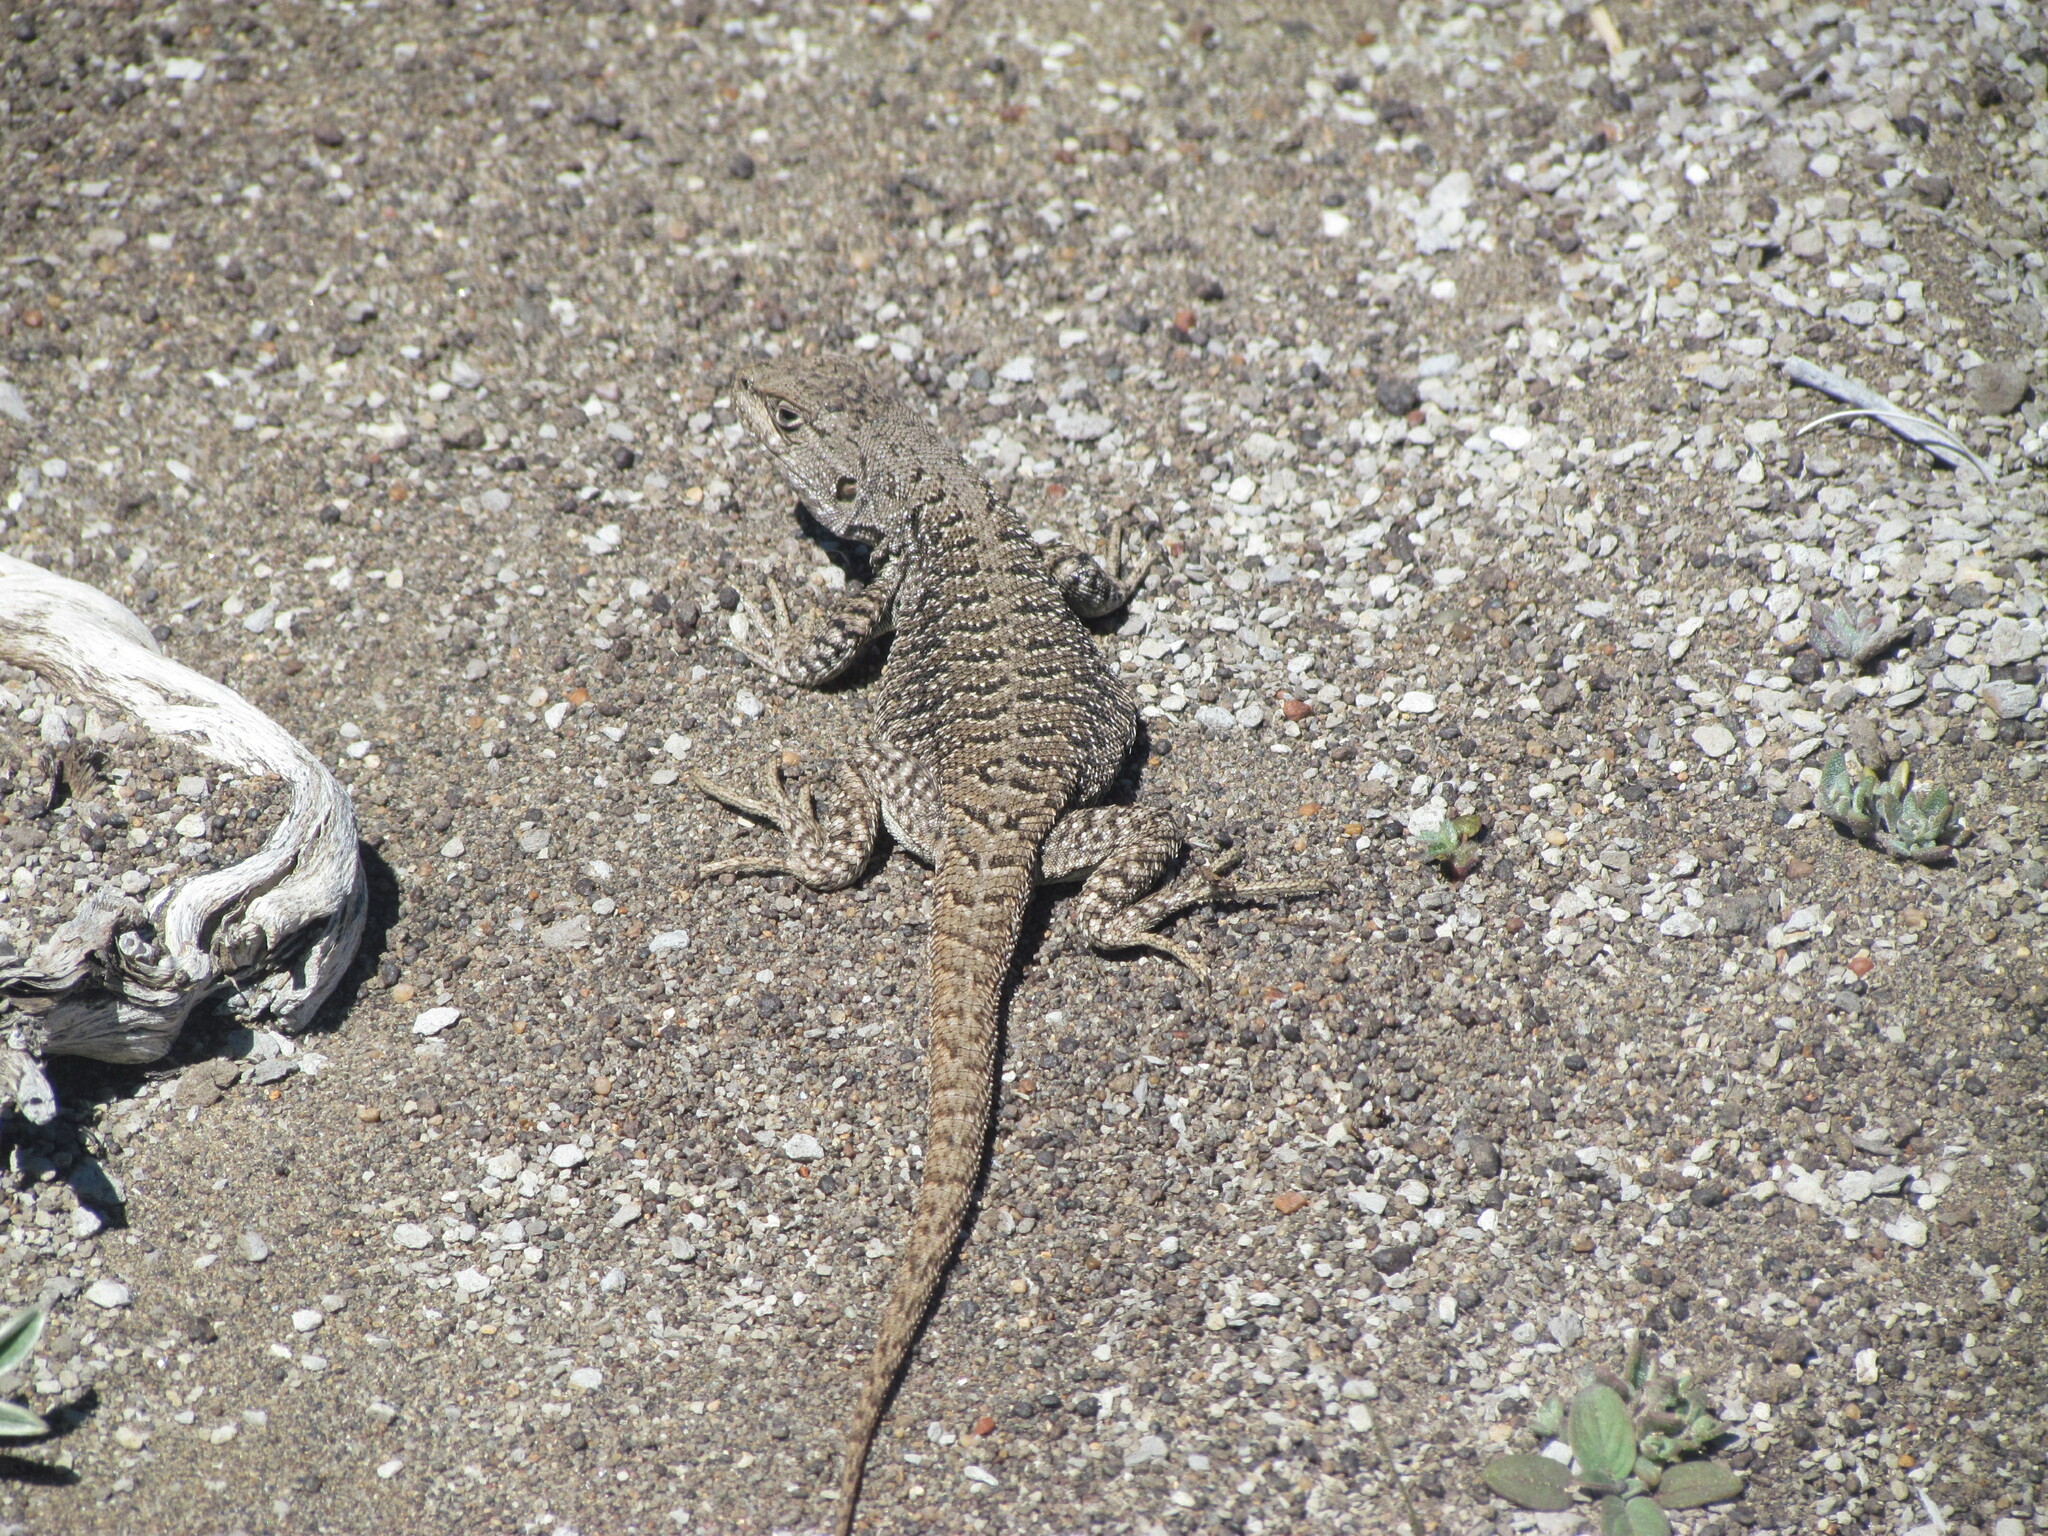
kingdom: Animalia
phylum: Chordata
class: Squamata
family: Liolaemidae
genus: Liolaemus
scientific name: Liolaemus kingii
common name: King's tree iguana
